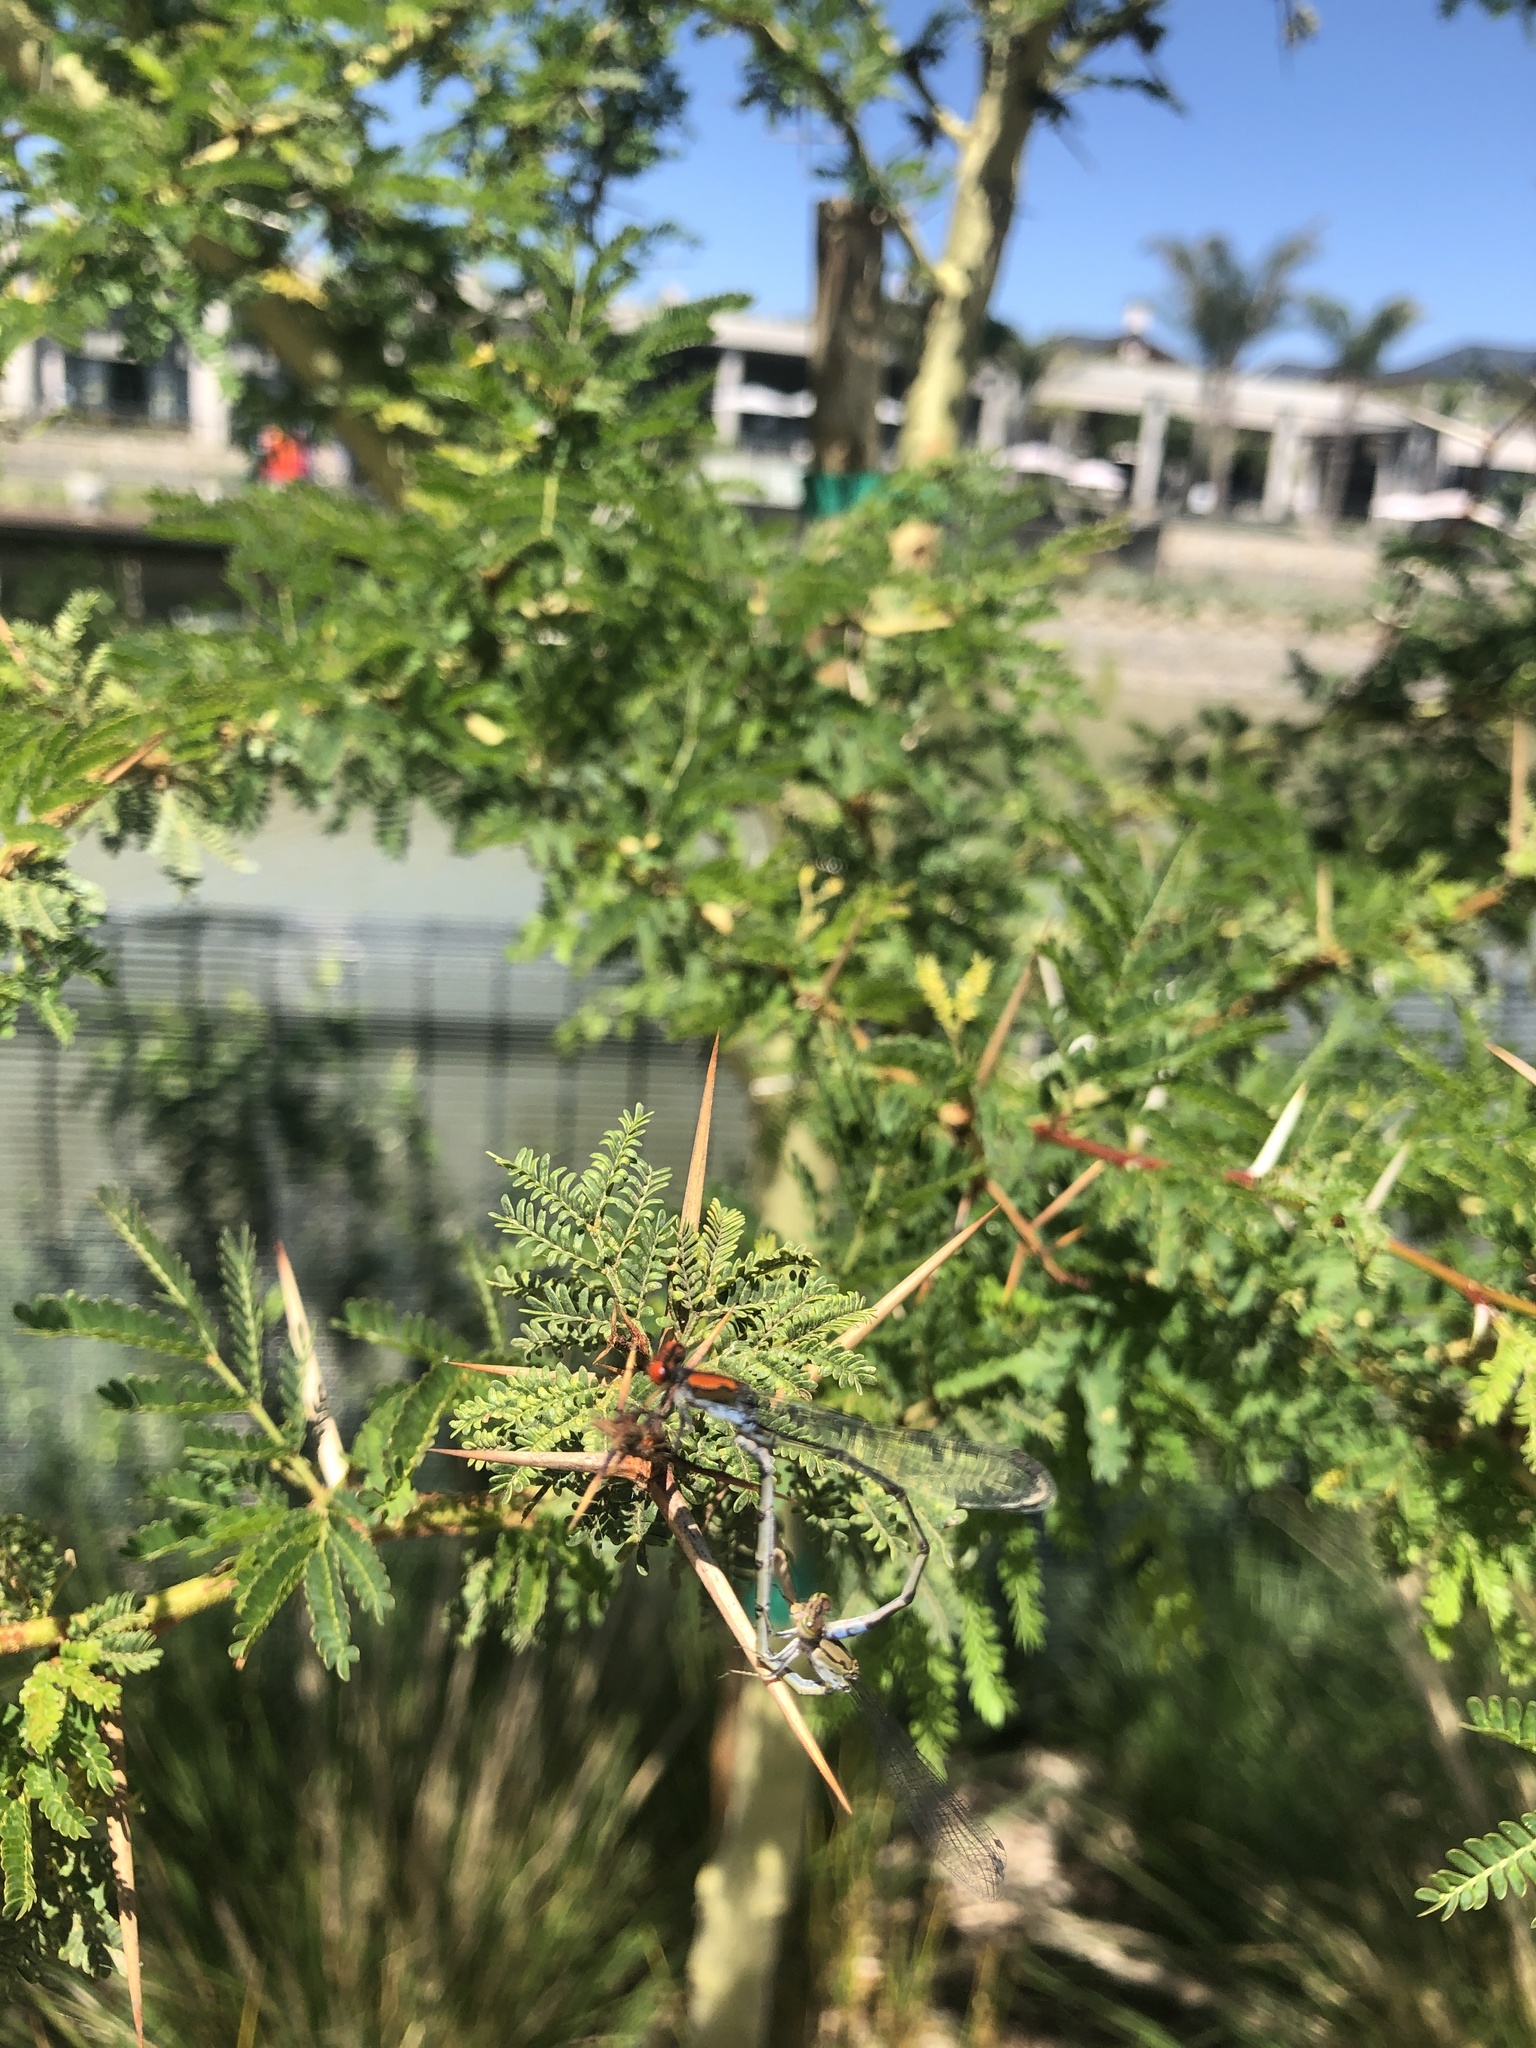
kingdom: Animalia
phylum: Arthropoda
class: Insecta
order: Odonata
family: Coenagrionidae
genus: Pseudagrion
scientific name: Pseudagrion massaicum
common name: Masai sprite
